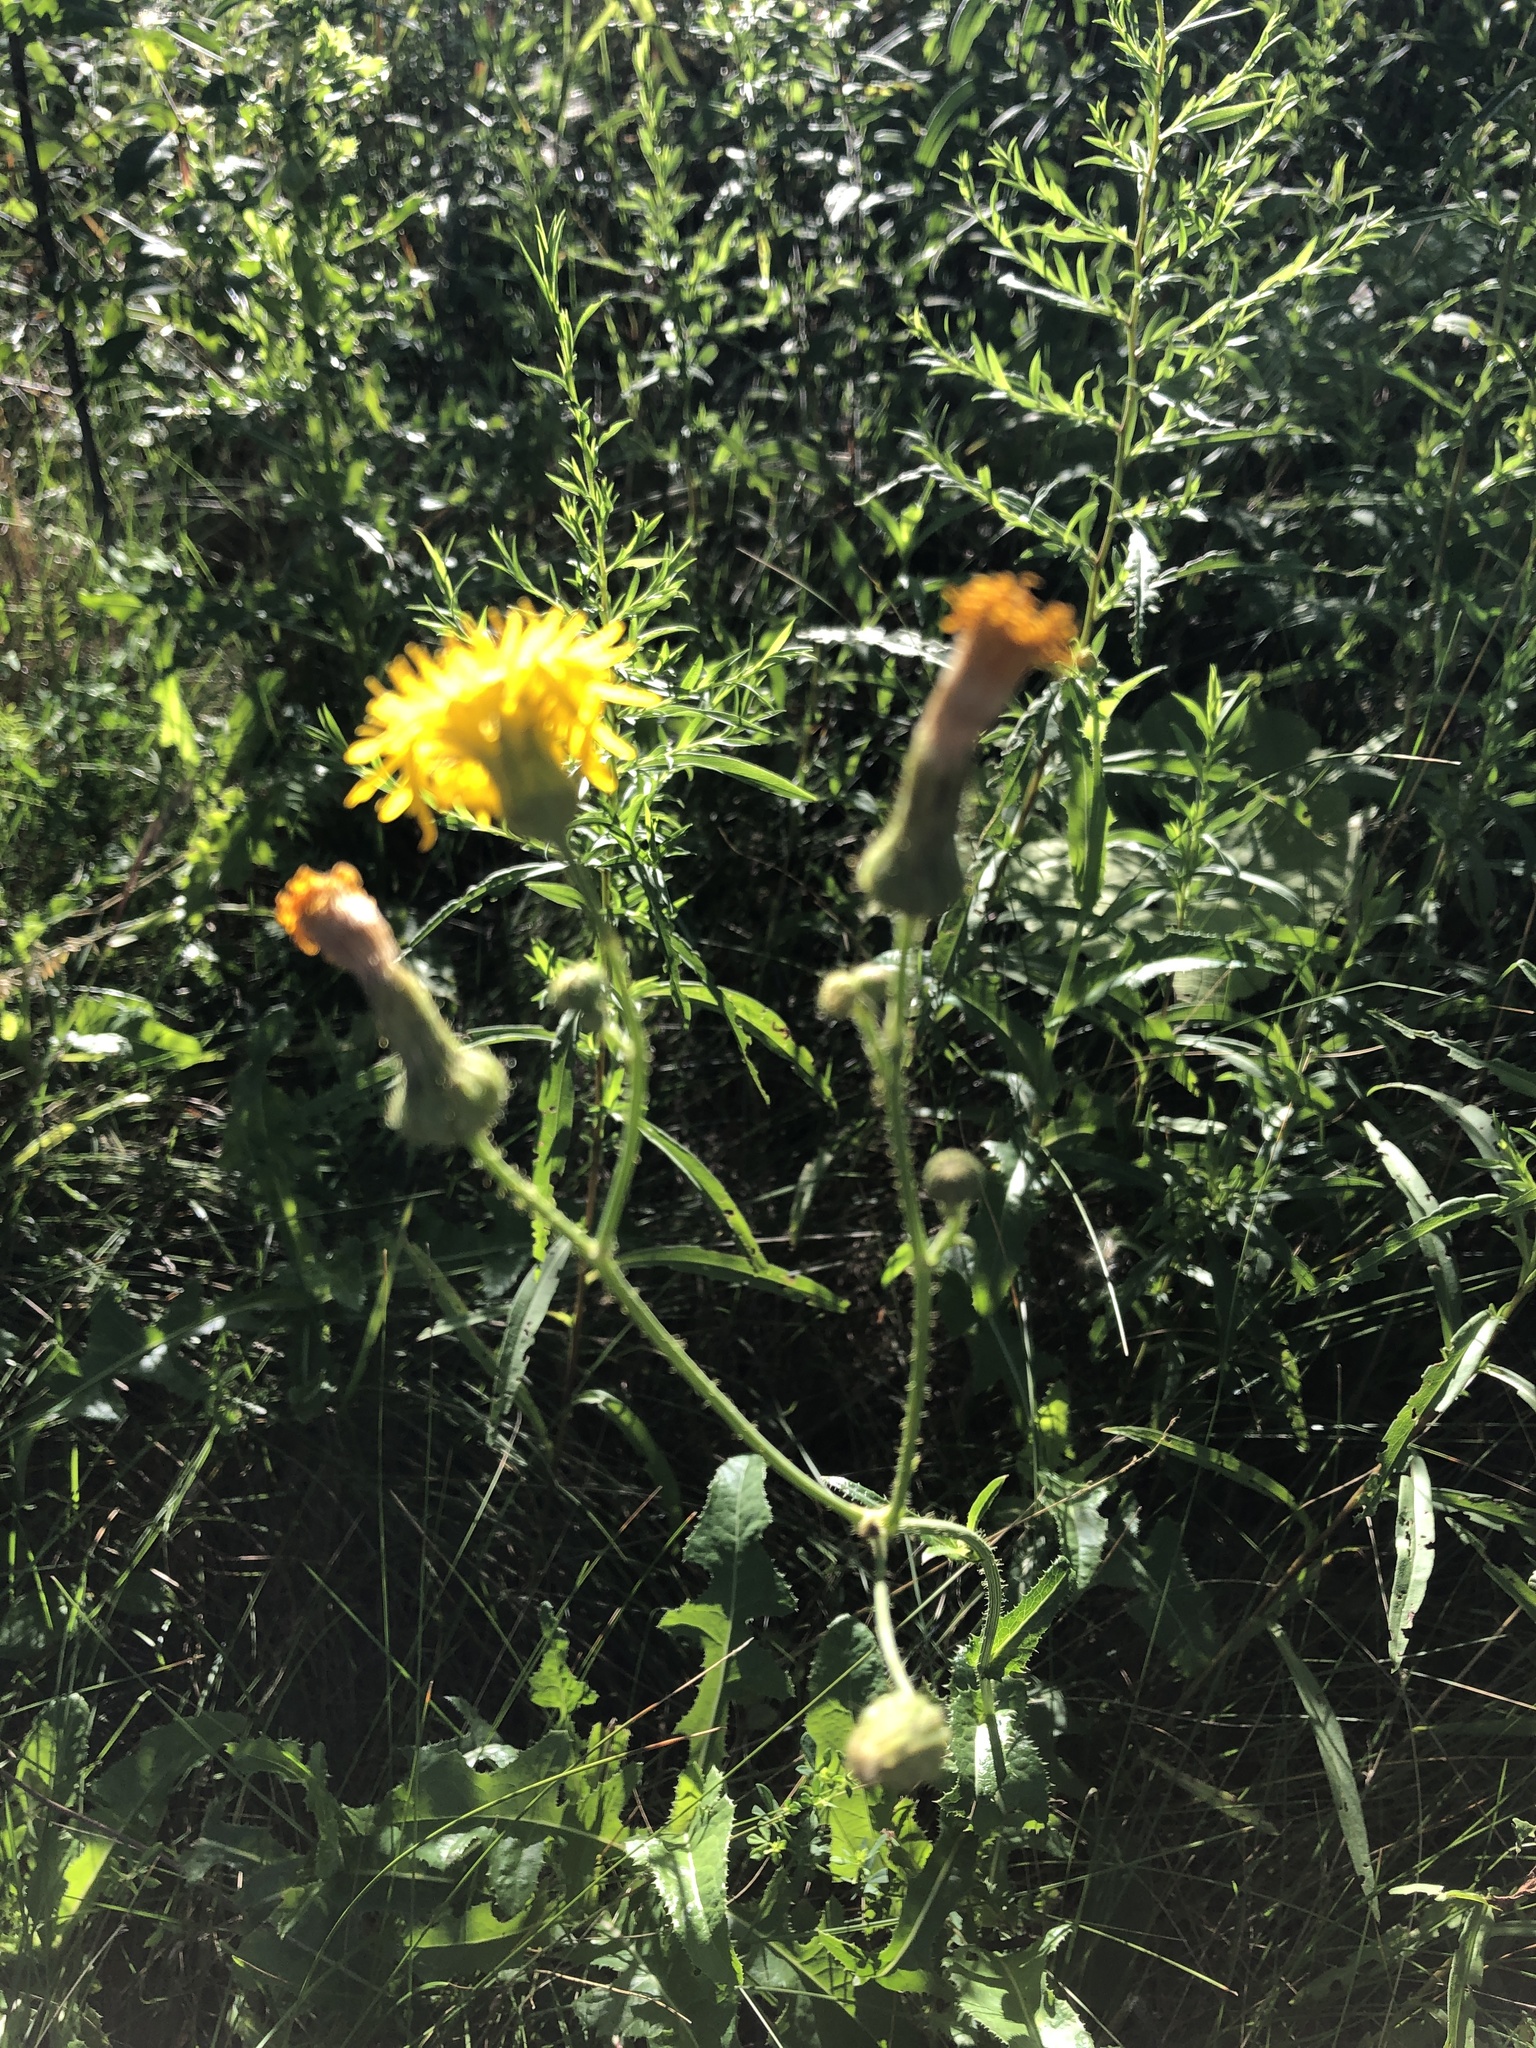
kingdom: Plantae
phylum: Tracheophyta
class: Magnoliopsida
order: Asterales
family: Asteraceae
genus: Sonchus
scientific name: Sonchus arvensis
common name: Perennial sow-thistle
